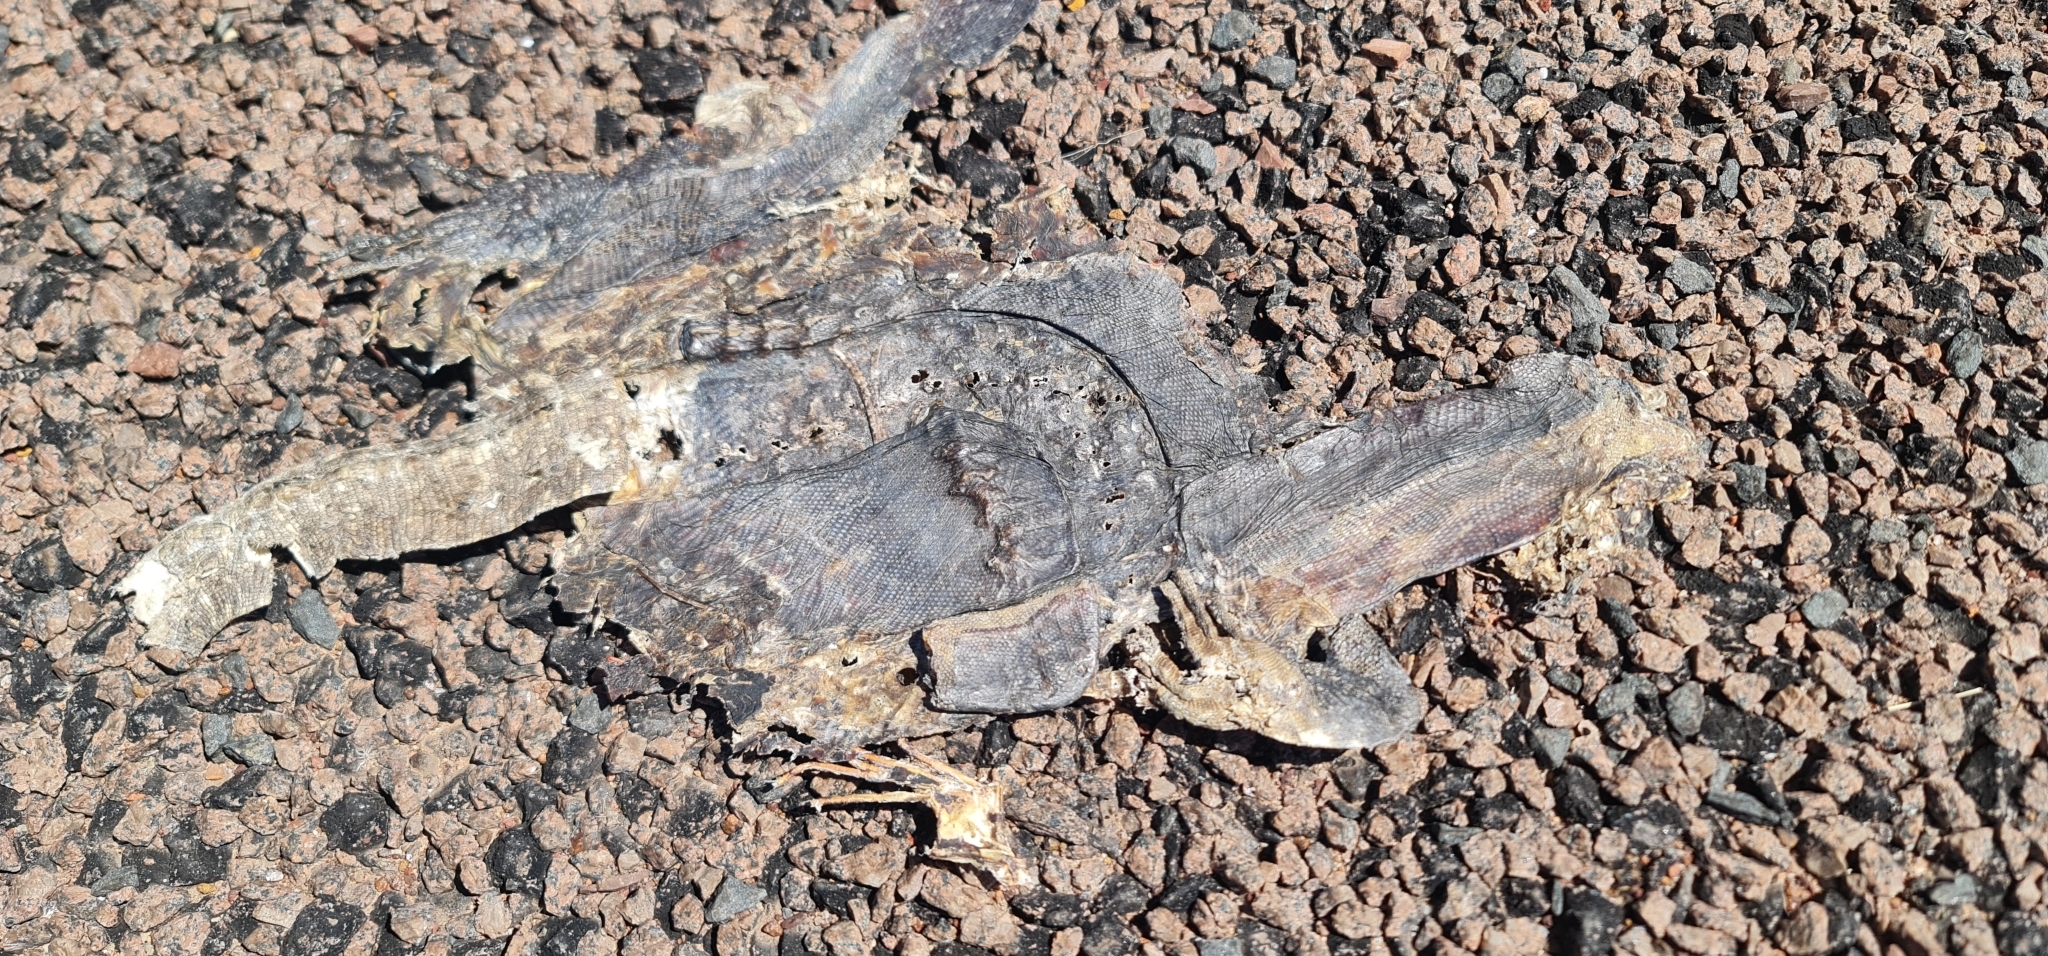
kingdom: Animalia
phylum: Chordata
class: Squamata
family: Varanidae
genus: Varanus
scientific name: Varanus mertensi
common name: Mertens's water monitor
